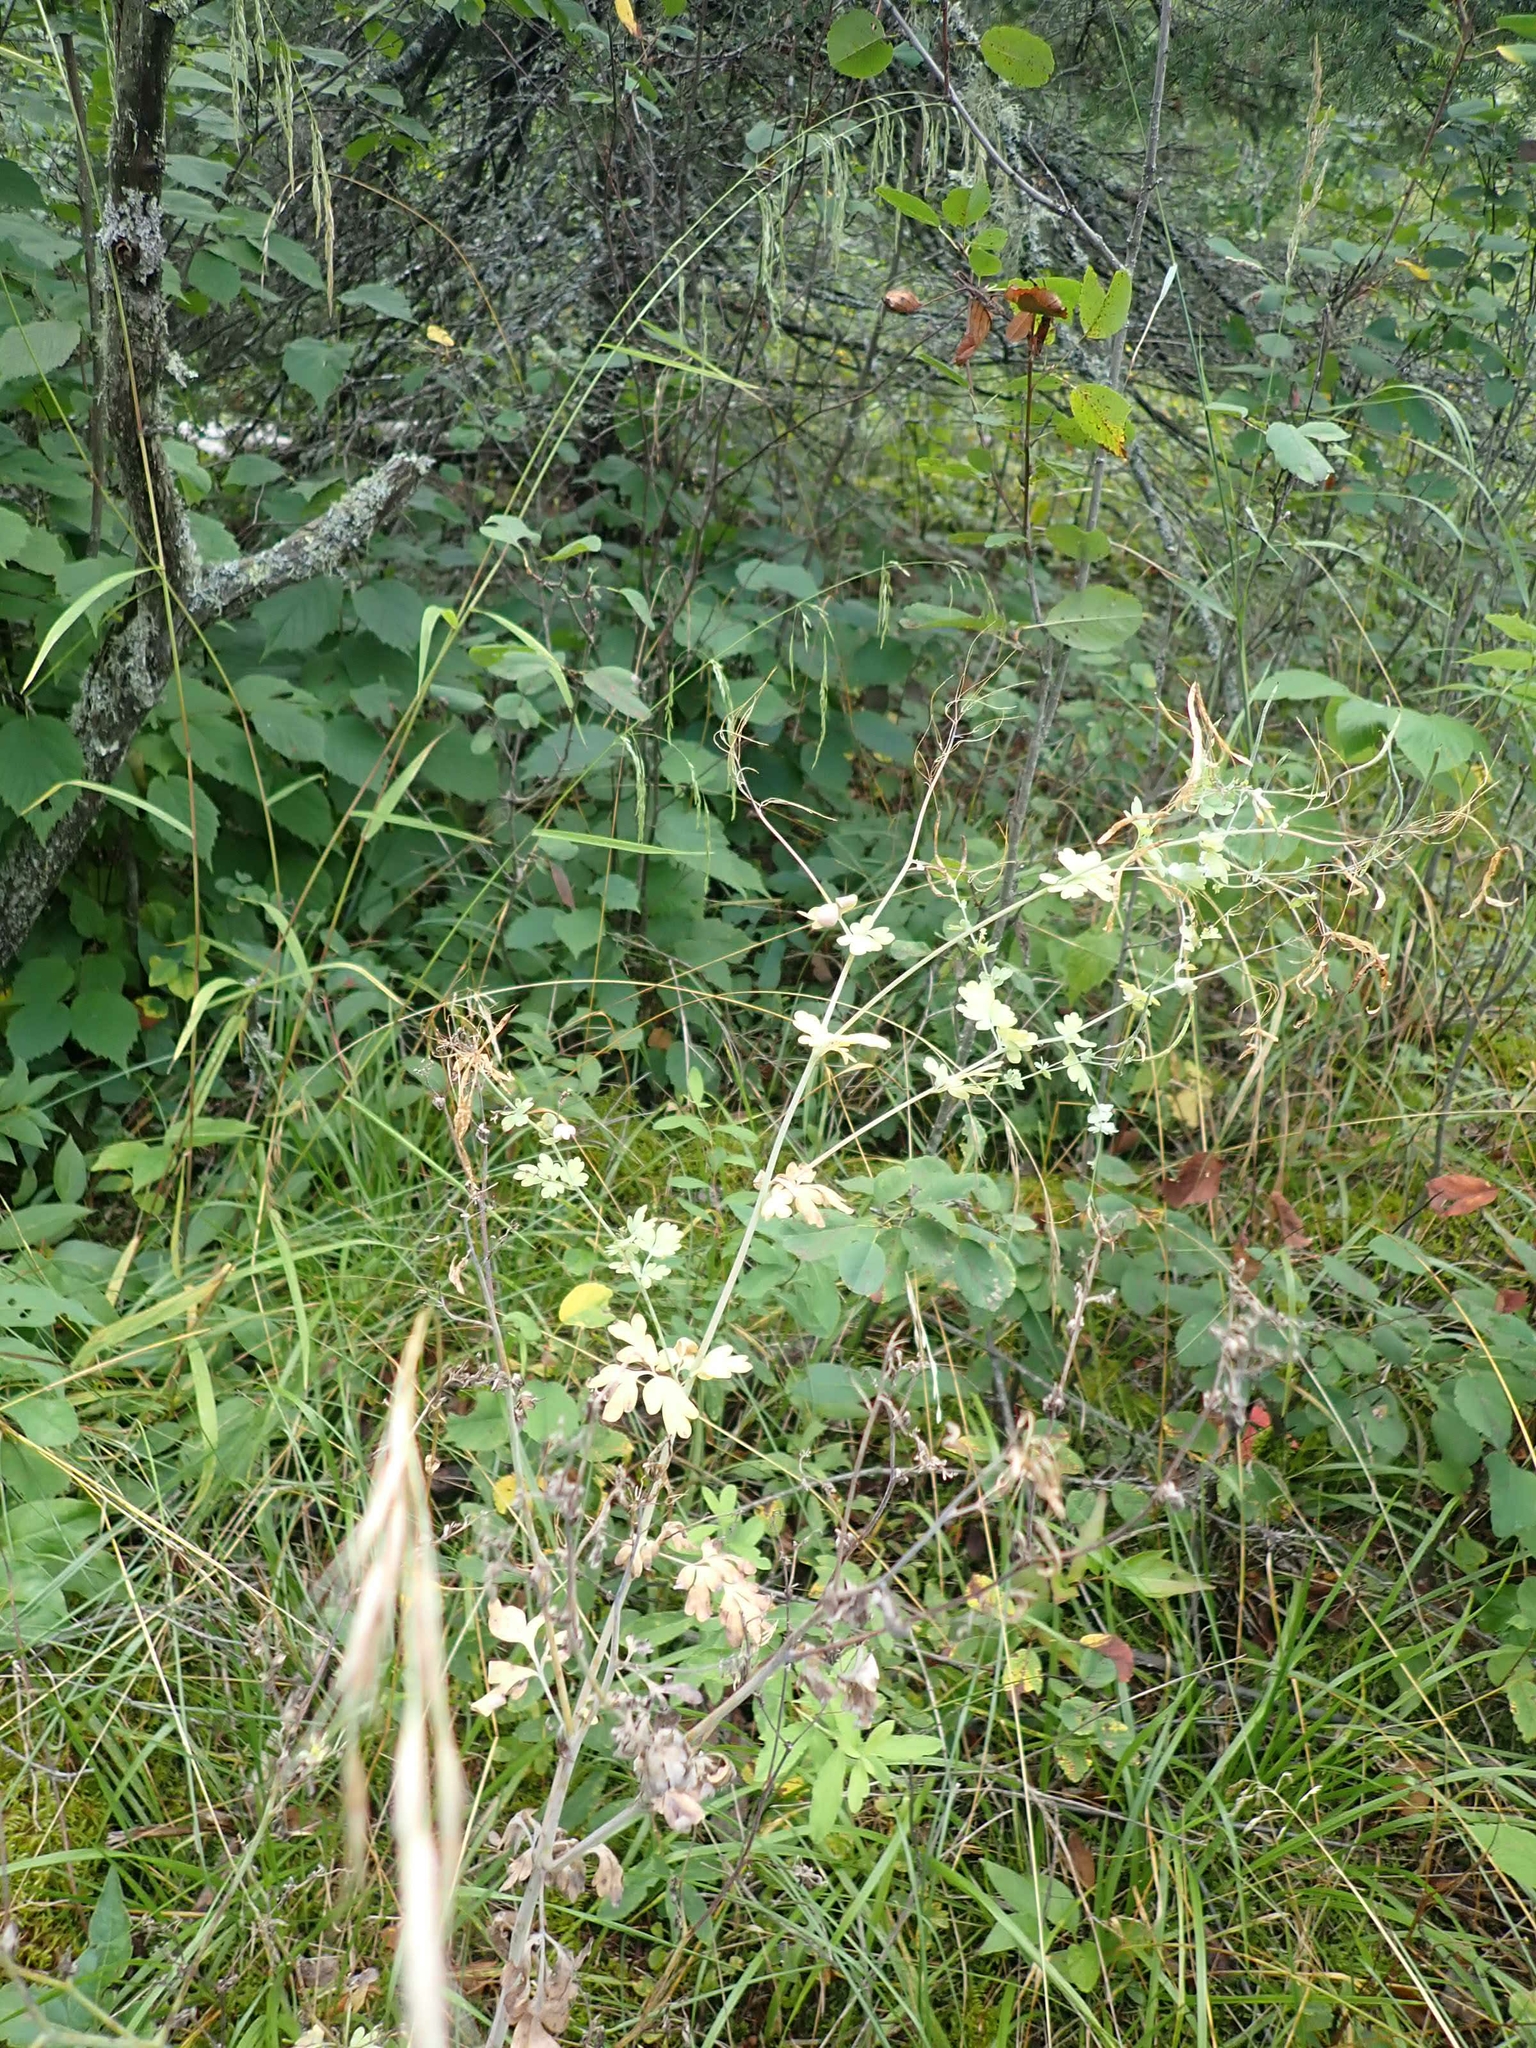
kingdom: Plantae
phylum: Tracheophyta
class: Magnoliopsida
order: Ranunculales
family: Papaveraceae
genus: Capnoides
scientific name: Capnoides sempervirens
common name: Rock harlequin
